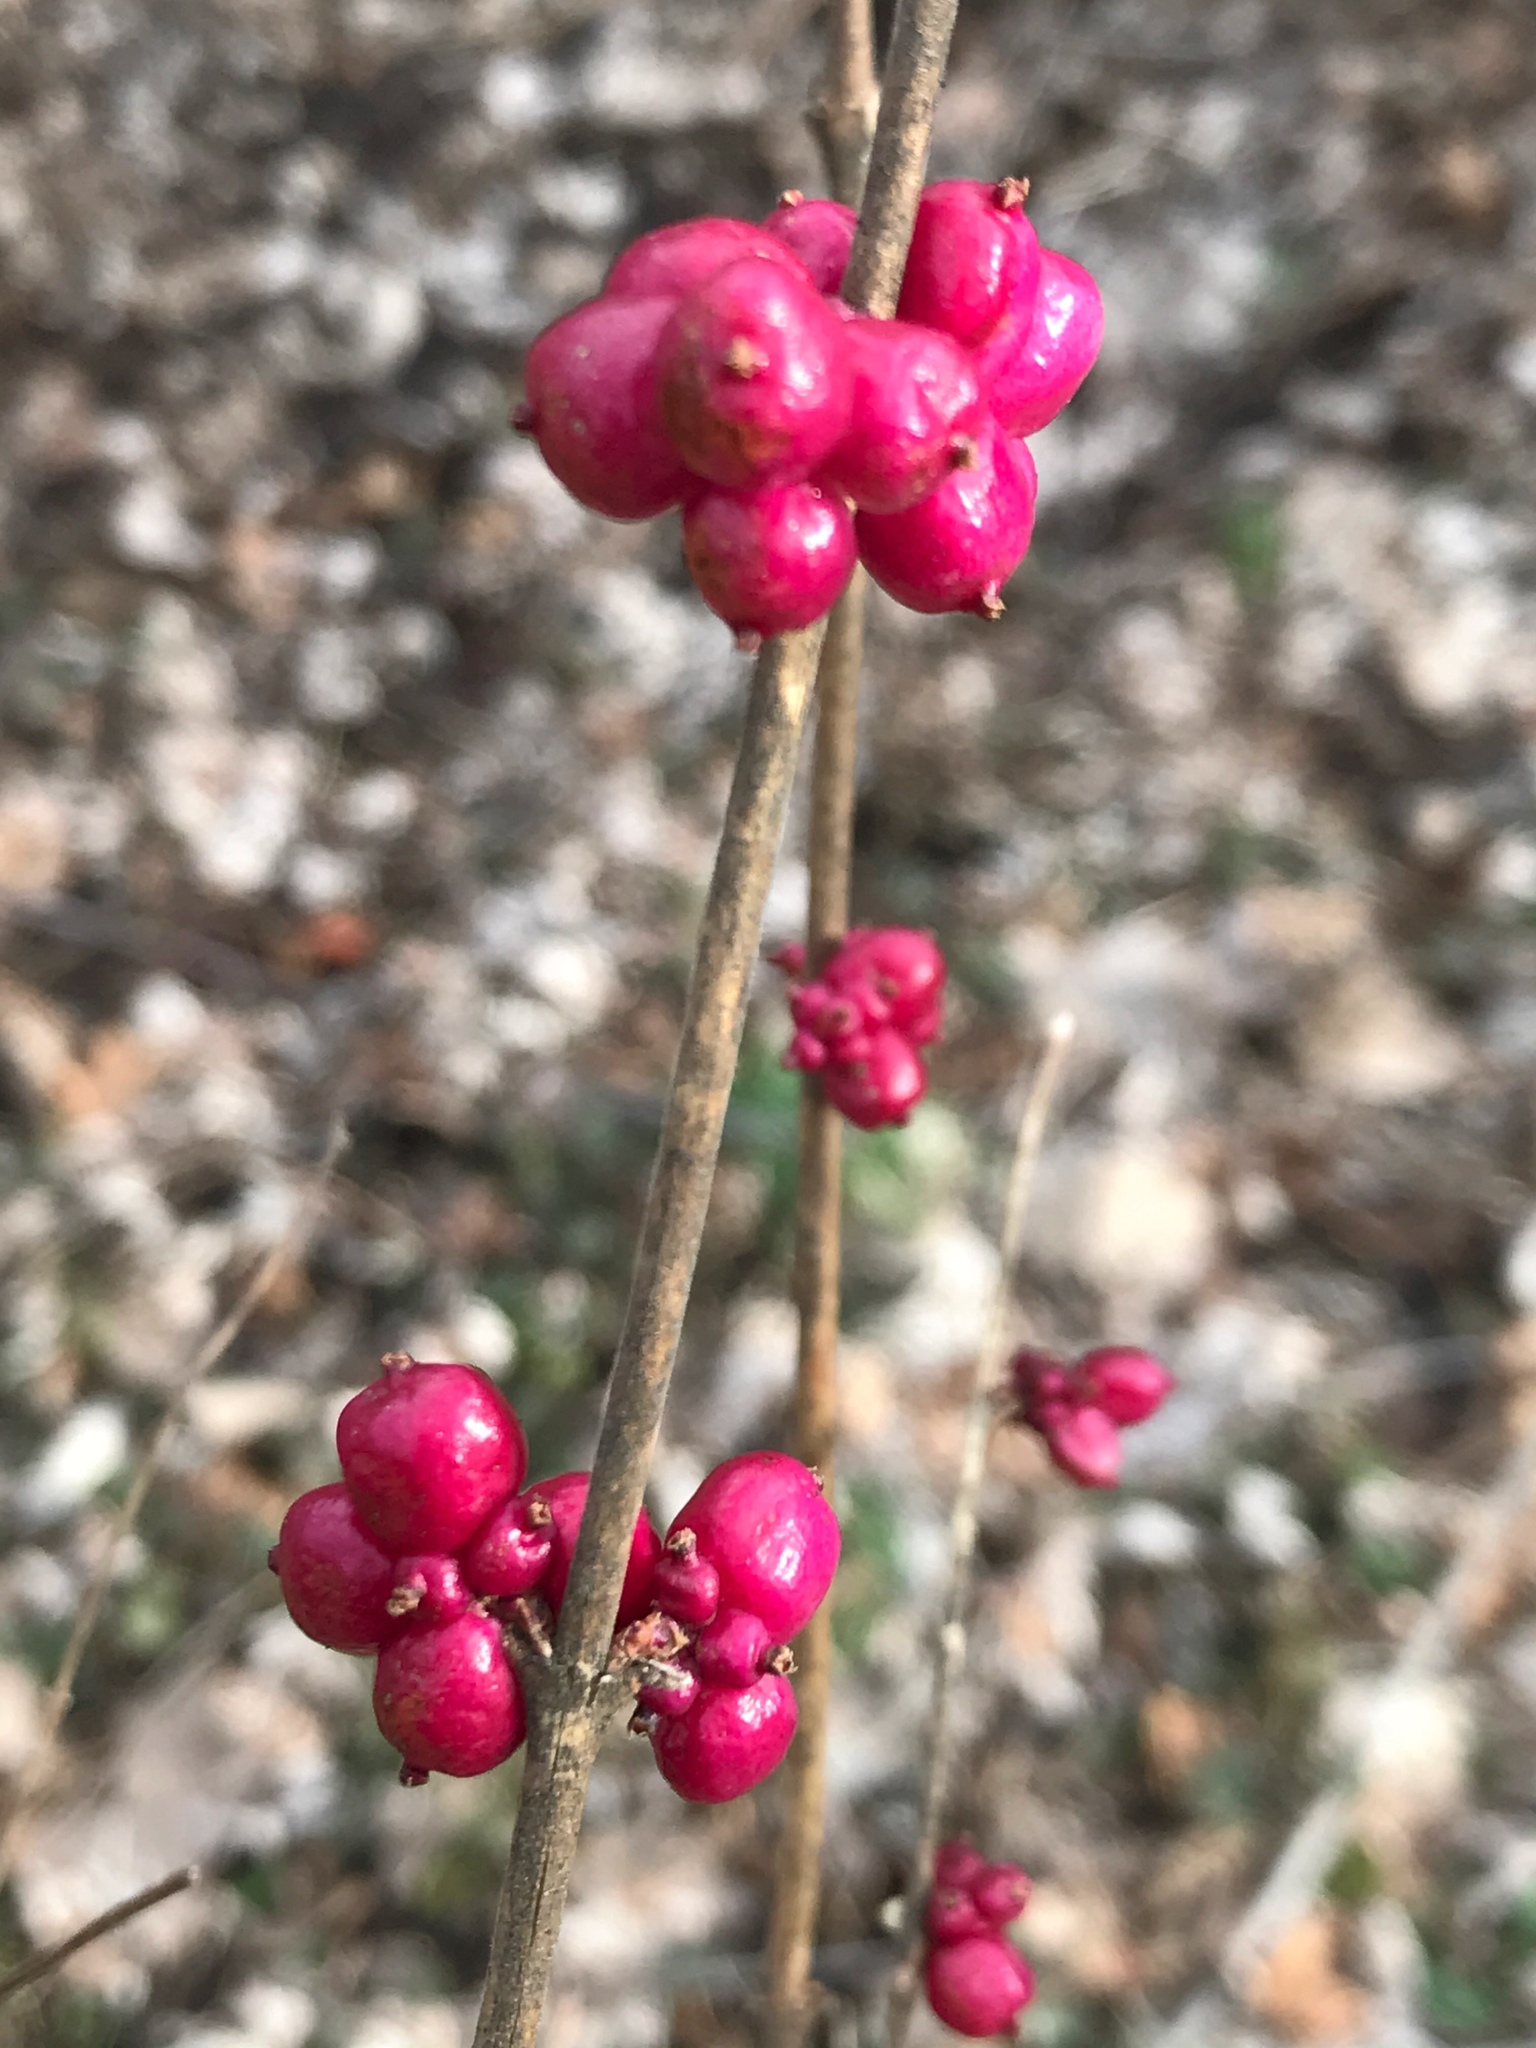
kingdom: Plantae
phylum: Tracheophyta
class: Magnoliopsida
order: Dipsacales
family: Caprifoliaceae
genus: Symphoricarpos
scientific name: Symphoricarpos orbiculatus
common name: Coralberry
